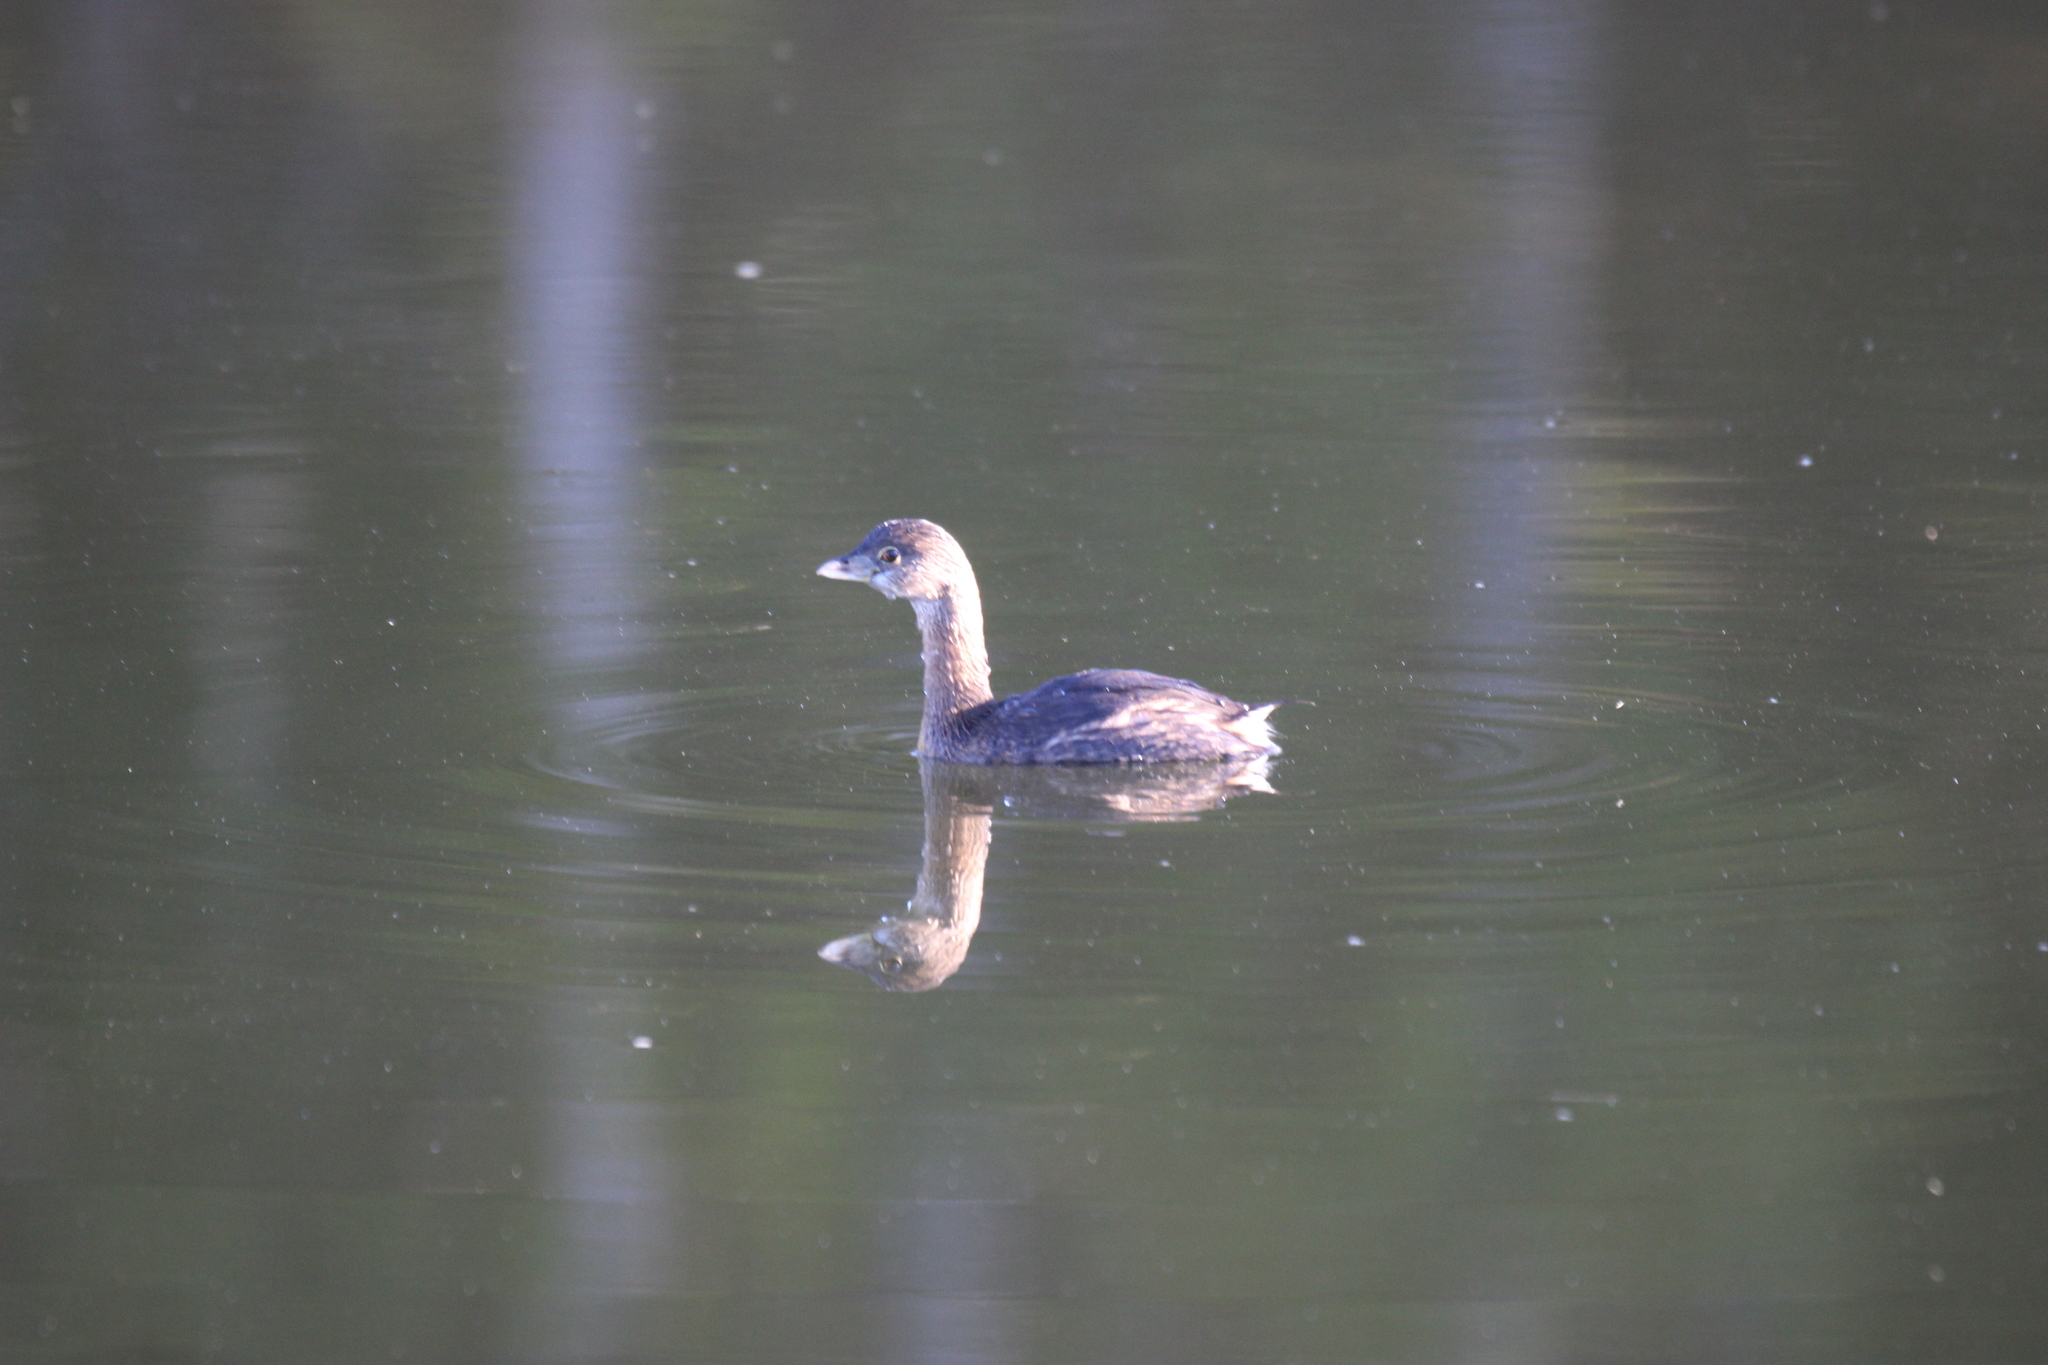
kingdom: Animalia
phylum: Chordata
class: Aves
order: Podicipediformes
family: Podicipedidae
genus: Podilymbus
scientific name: Podilymbus podiceps
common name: Pied-billed grebe
